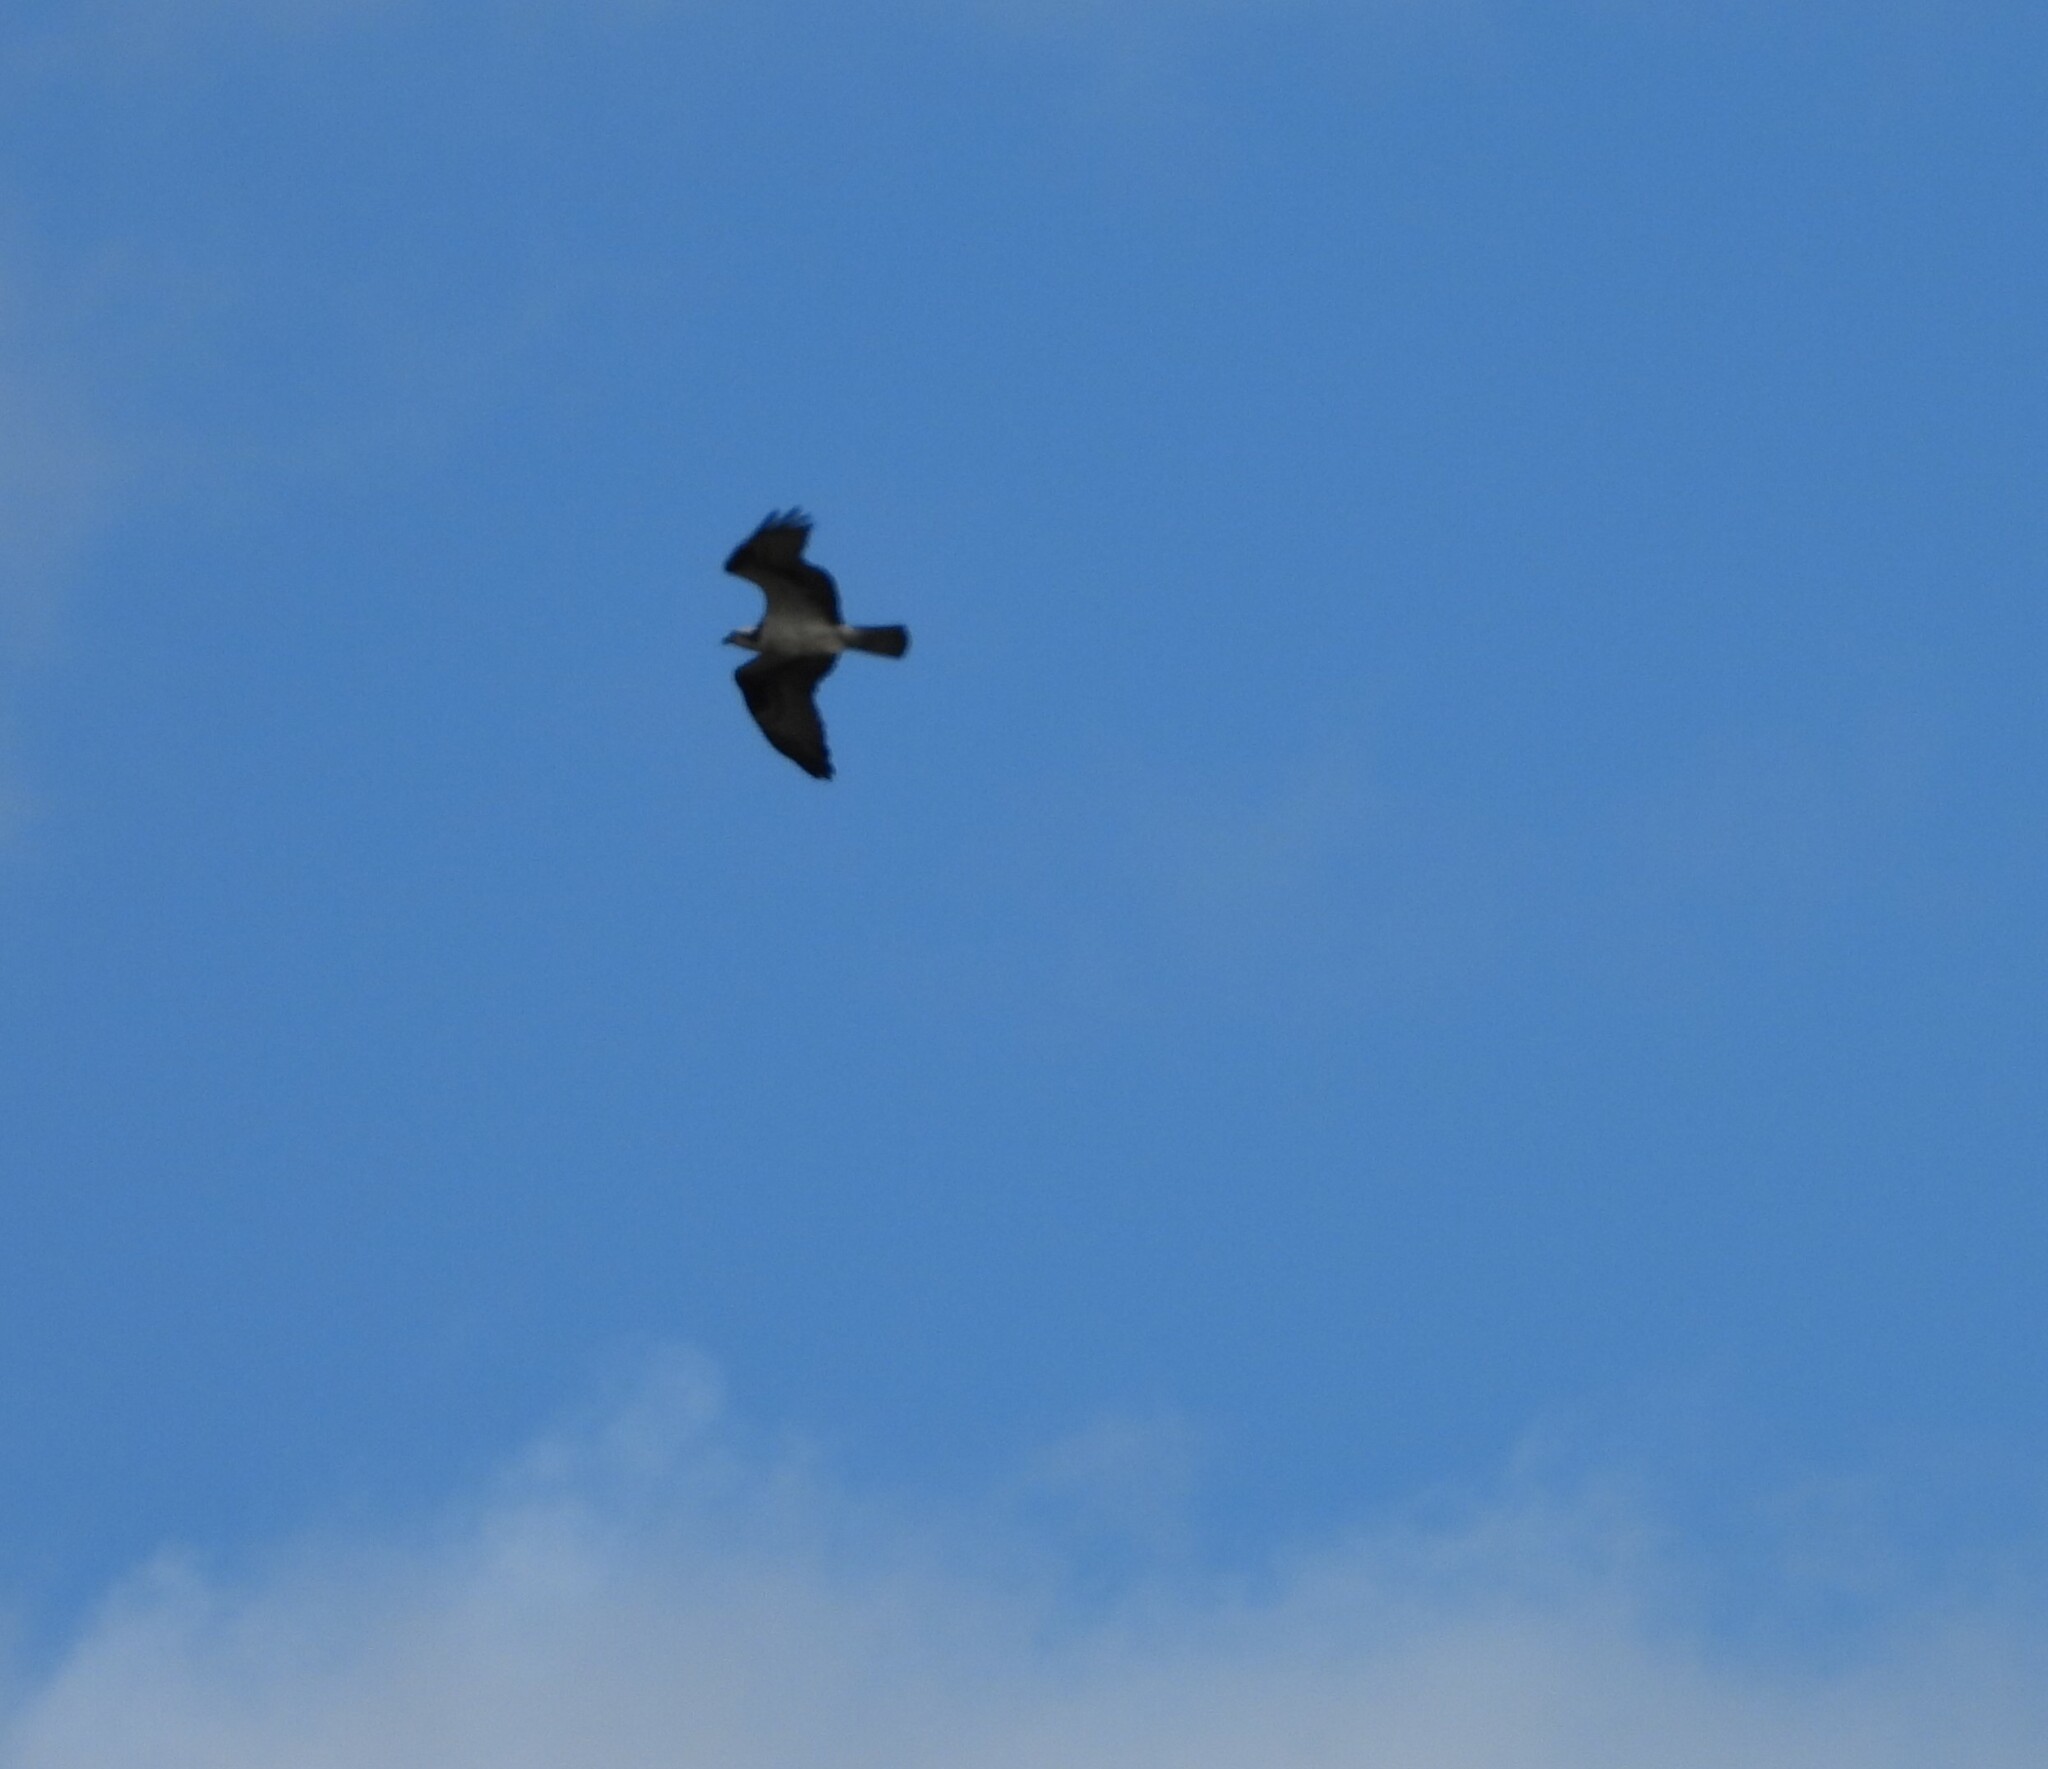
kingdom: Animalia
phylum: Chordata
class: Aves
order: Accipitriformes
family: Pandionidae
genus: Pandion
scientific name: Pandion haliaetus
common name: Osprey
